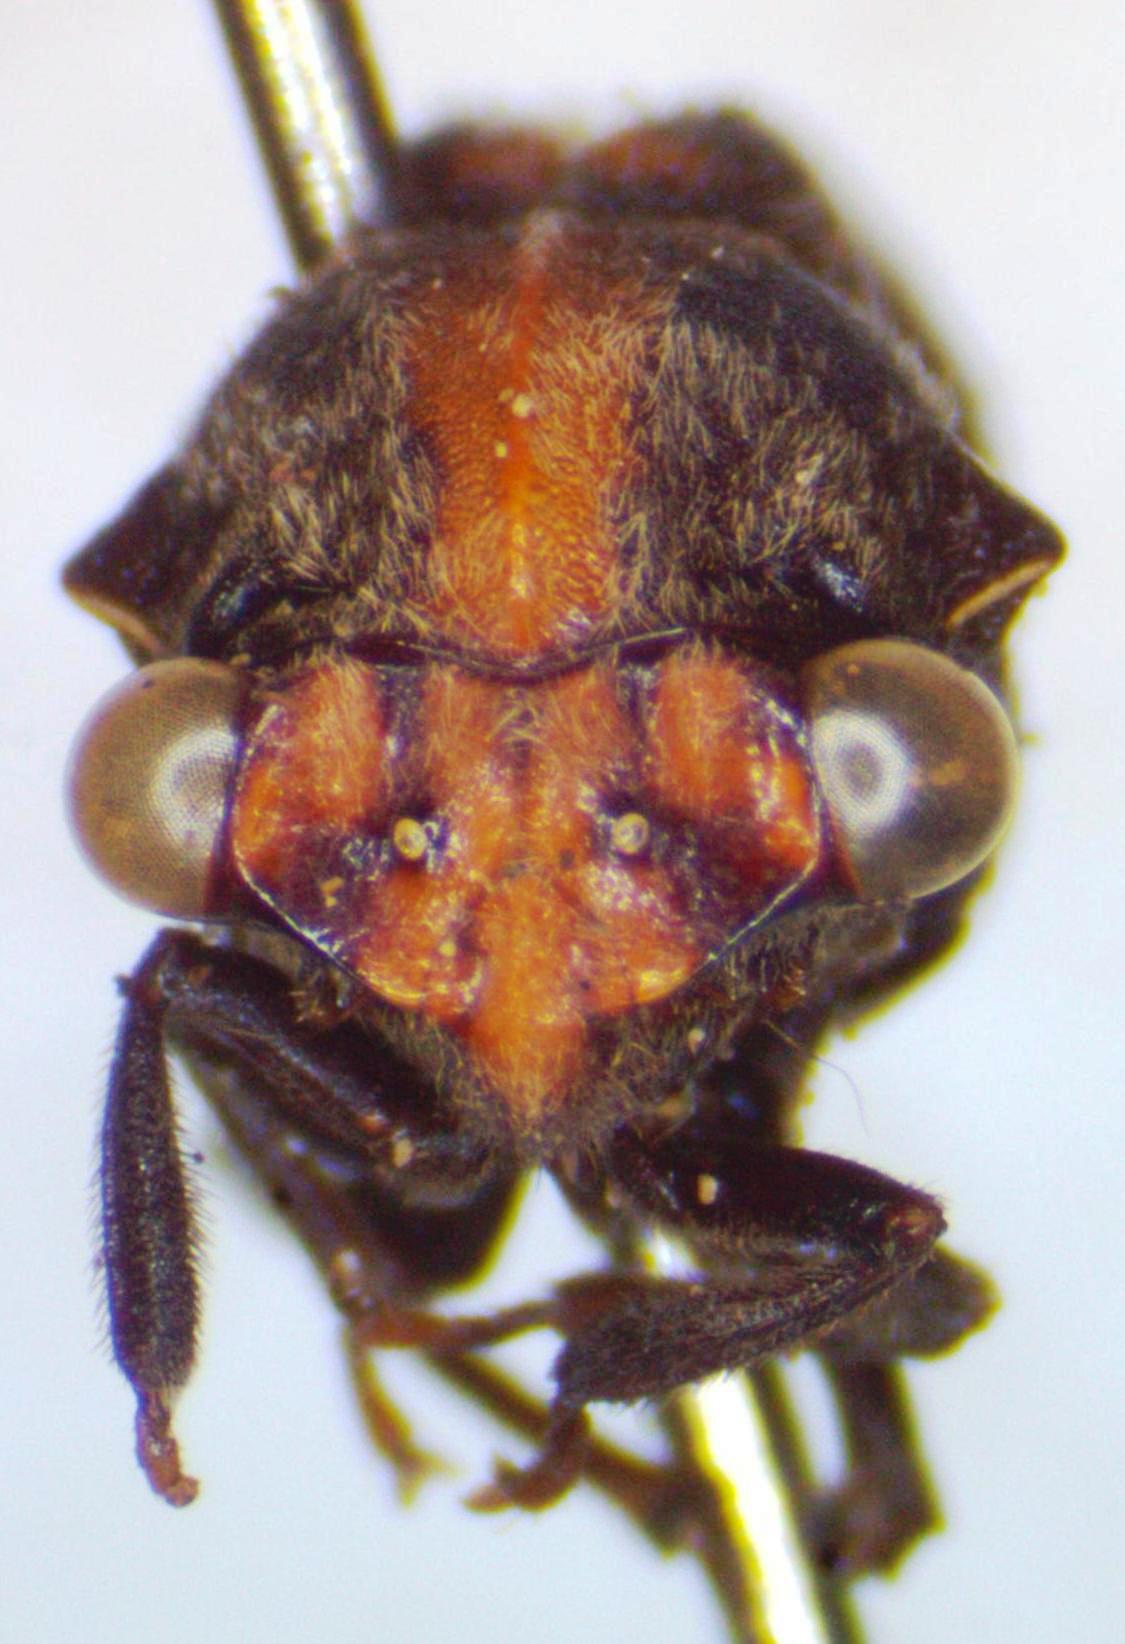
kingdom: Animalia
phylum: Arthropoda
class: Insecta
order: Hemiptera
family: Membracidae
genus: Lallemandia
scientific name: Lallemandia nodosa
